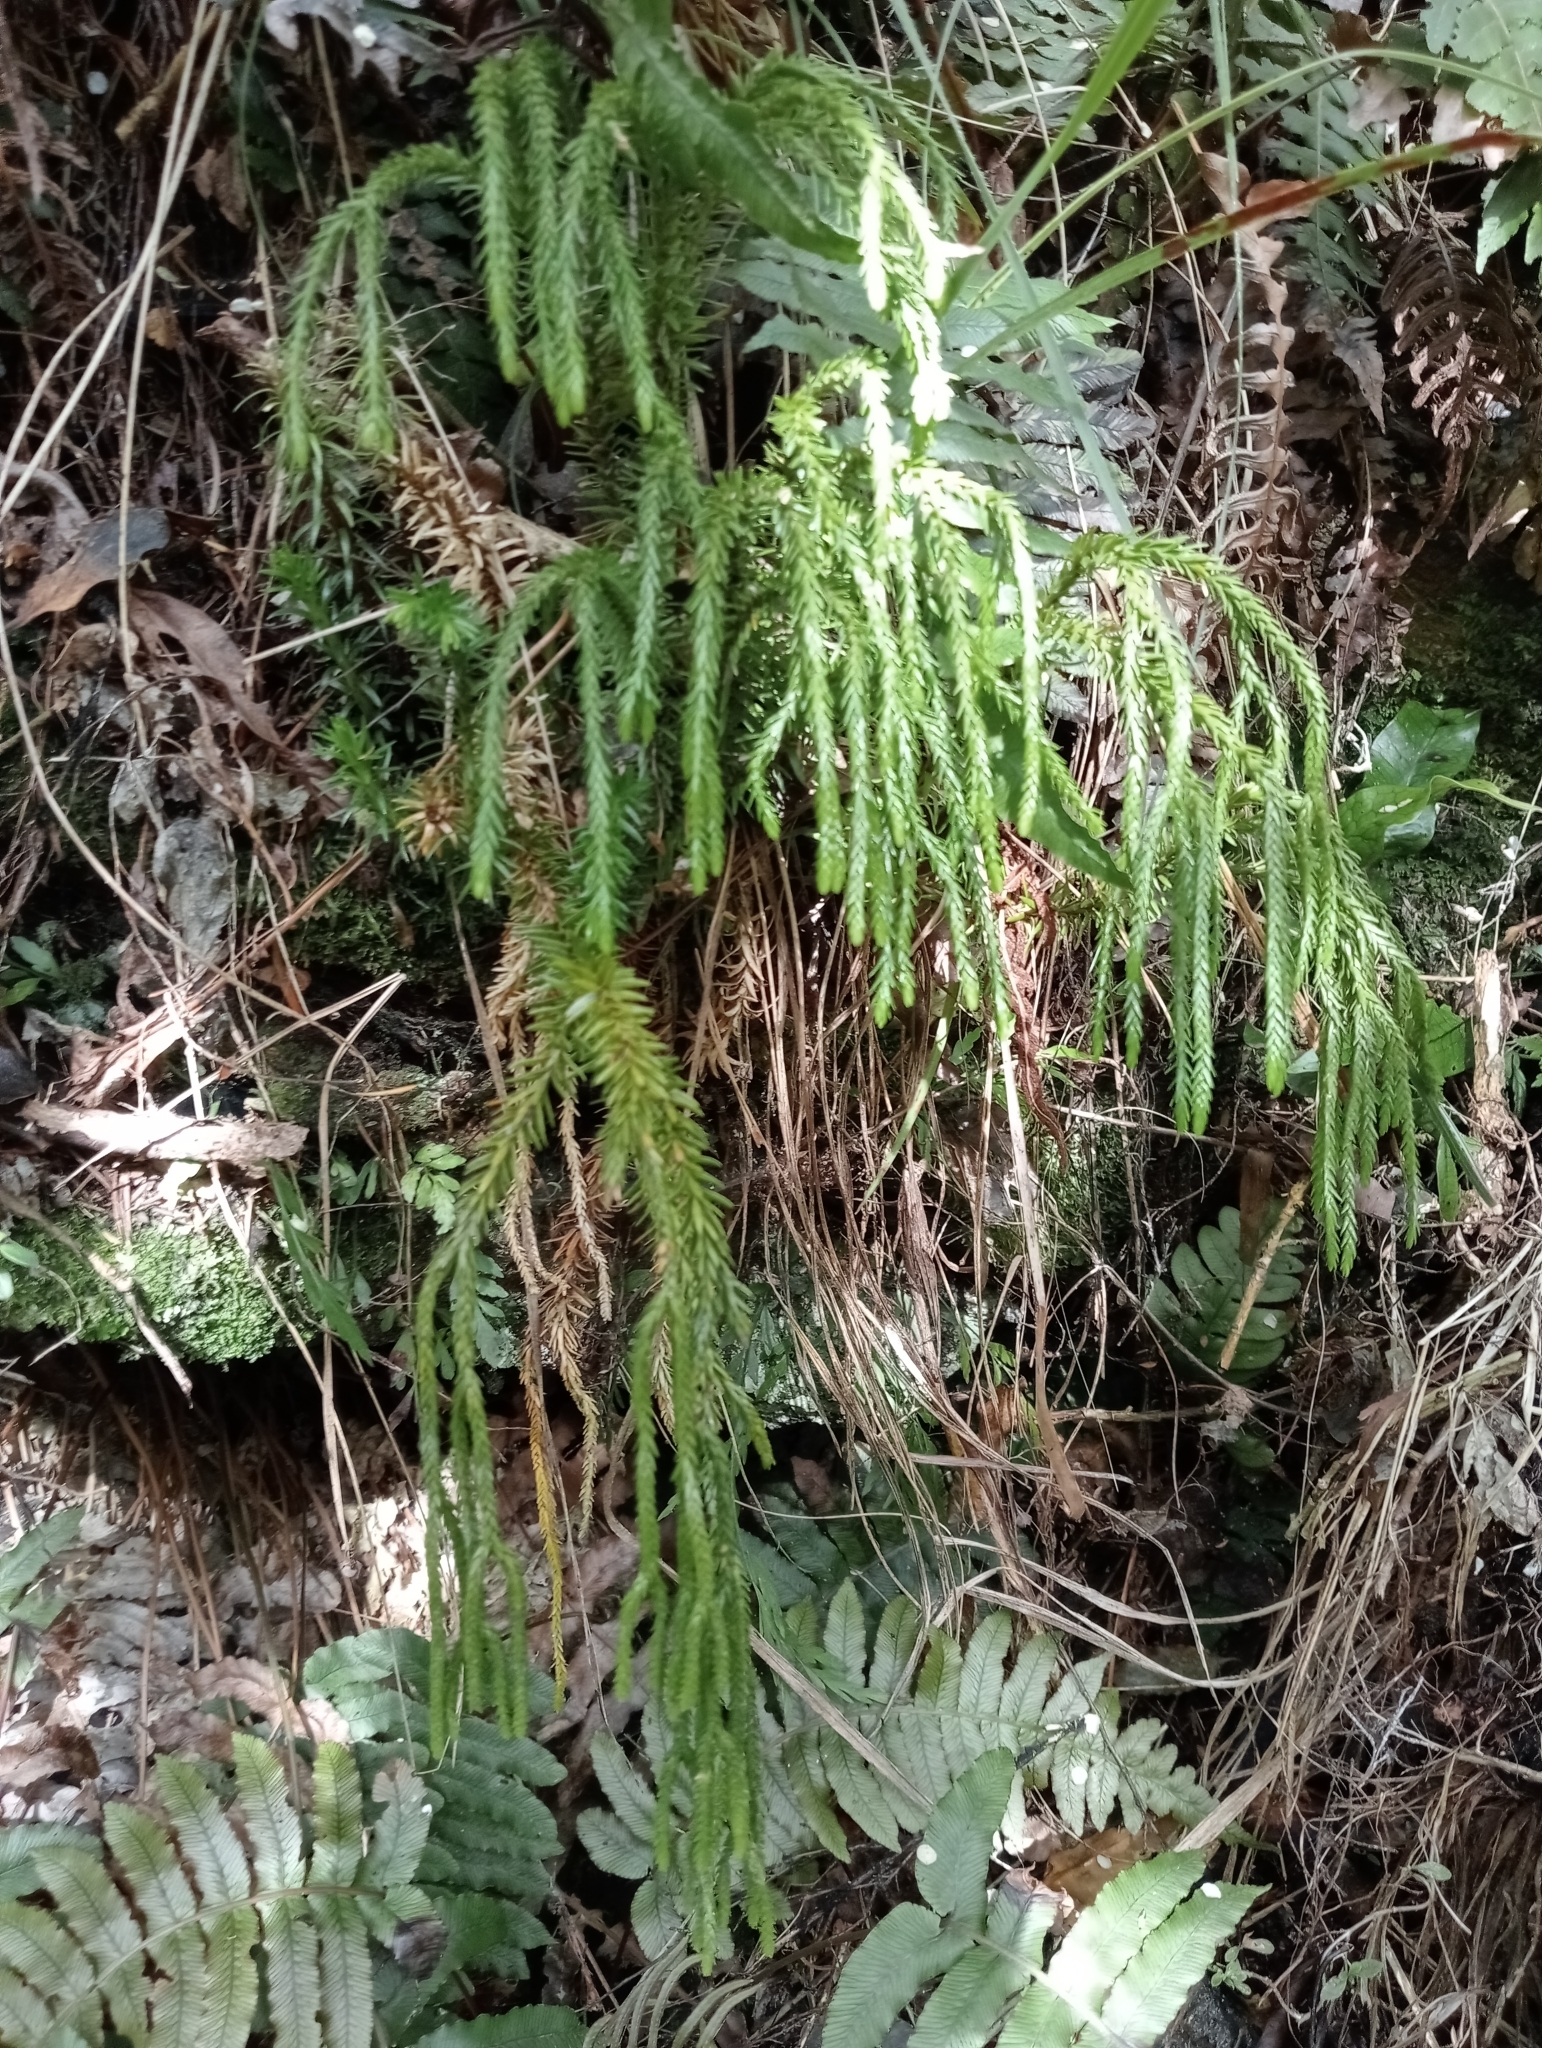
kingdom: Plantae
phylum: Tracheophyta
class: Lycopodiopsida
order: Lycopodiales
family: Lycopodiaceae
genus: Phlegmariurus
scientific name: Phlegmariurus varius
